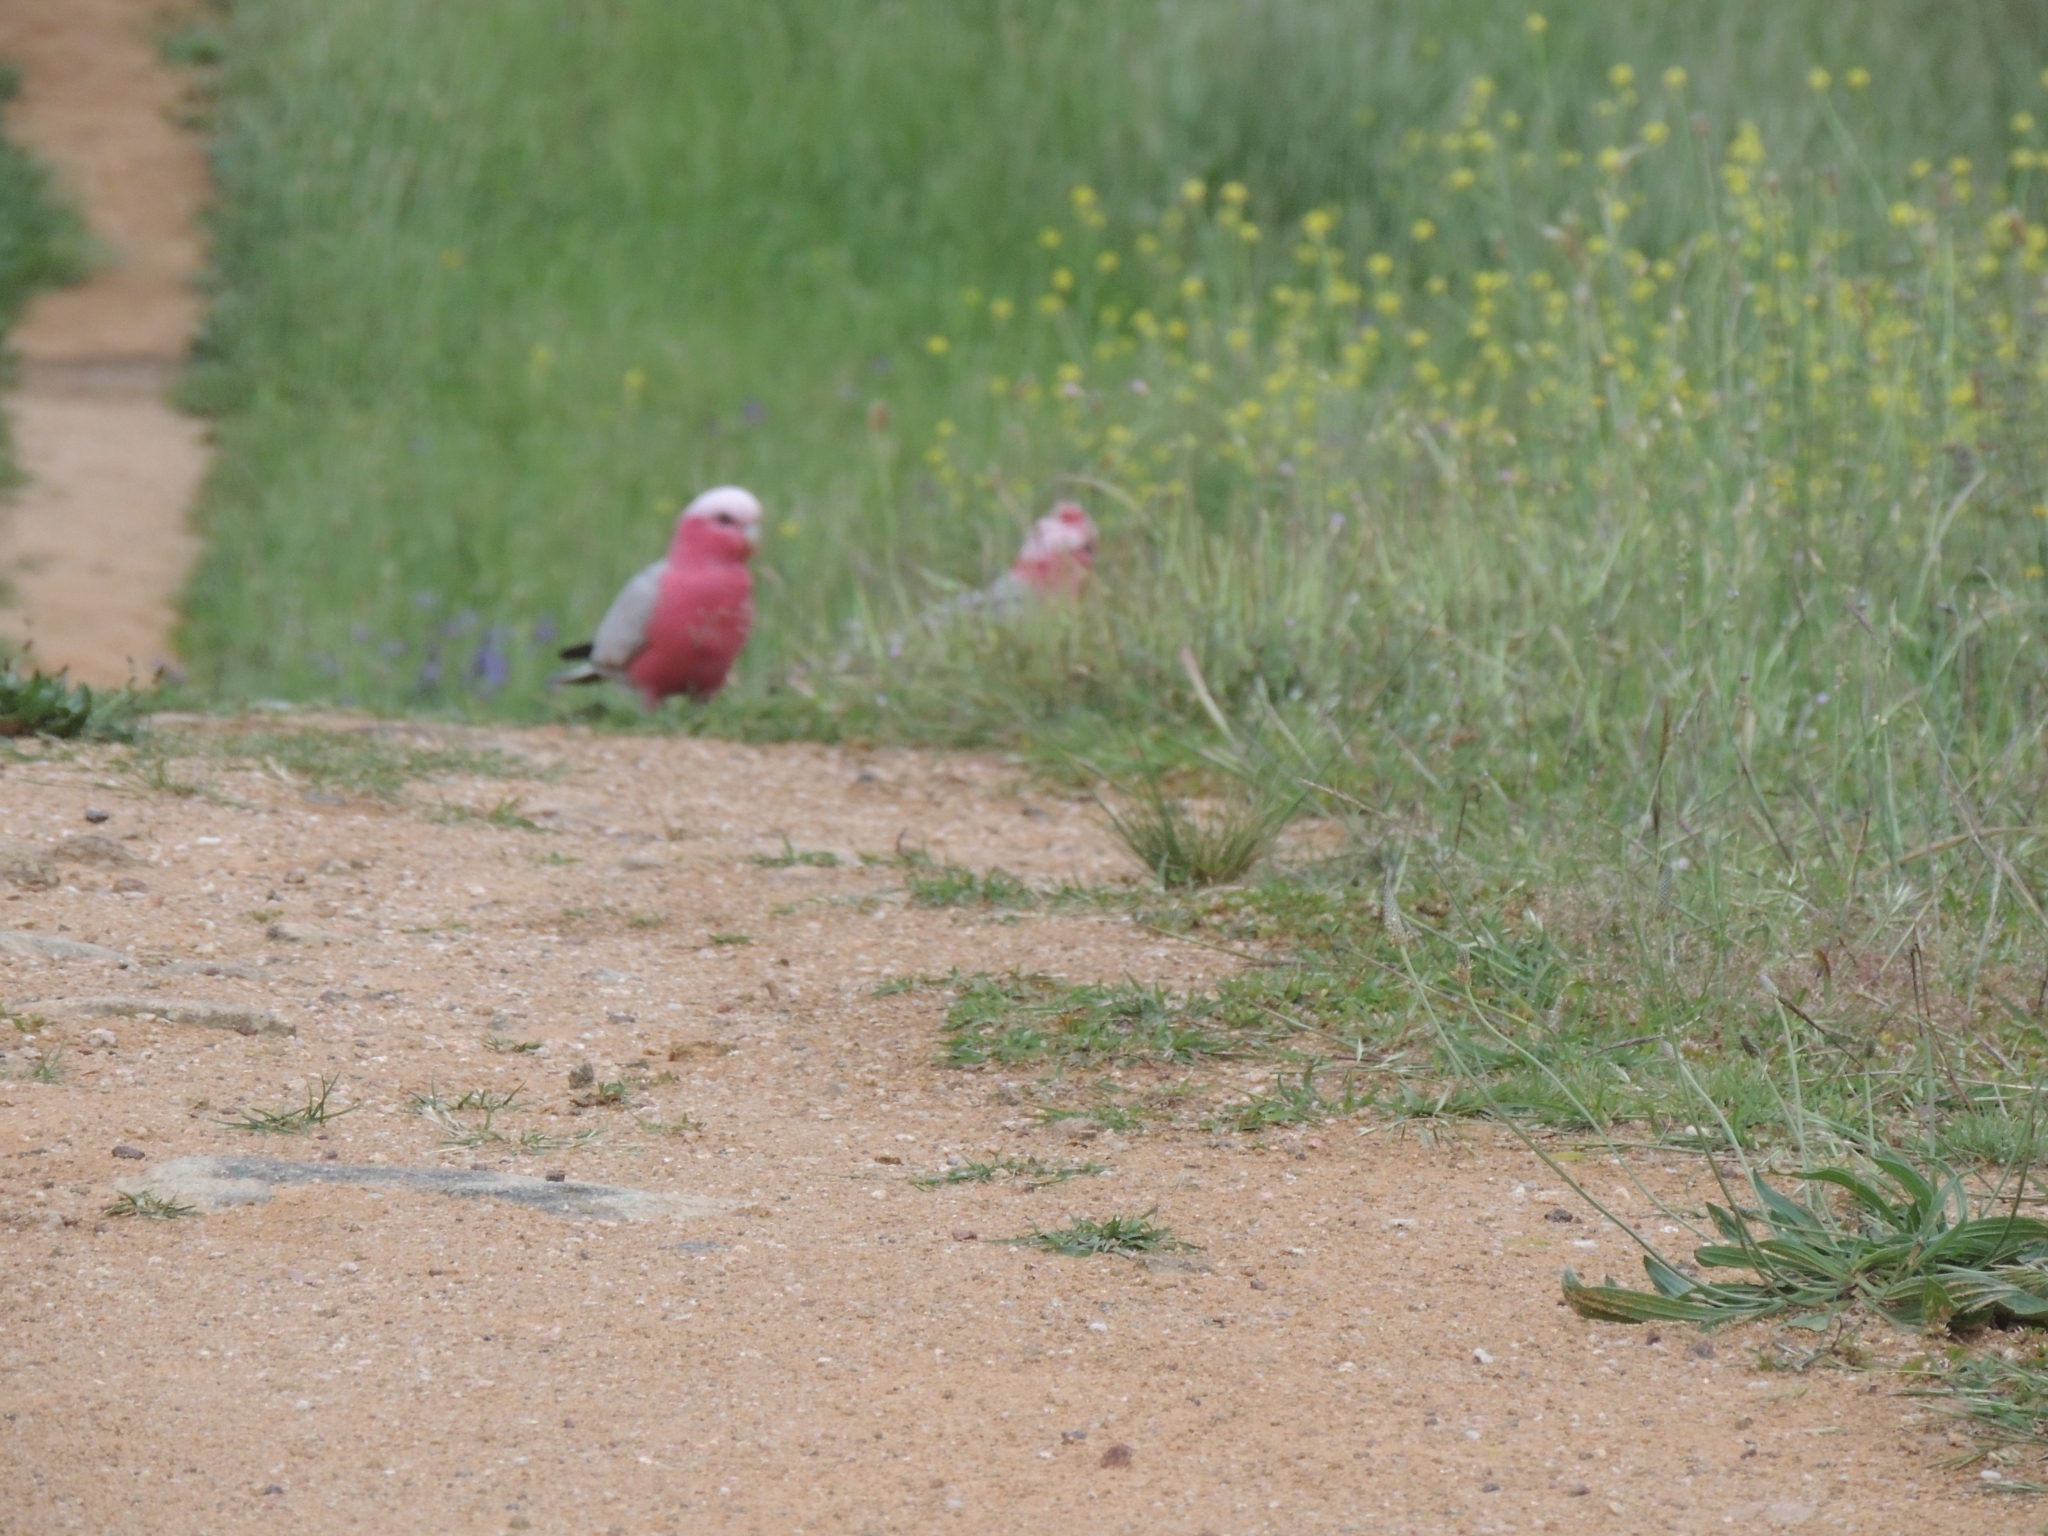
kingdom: Animalia
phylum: Chordata
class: Aves
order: Psittaciformes
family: Psittacidae
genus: Eolophus
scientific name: Eolophus roseicapilla
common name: Galah
